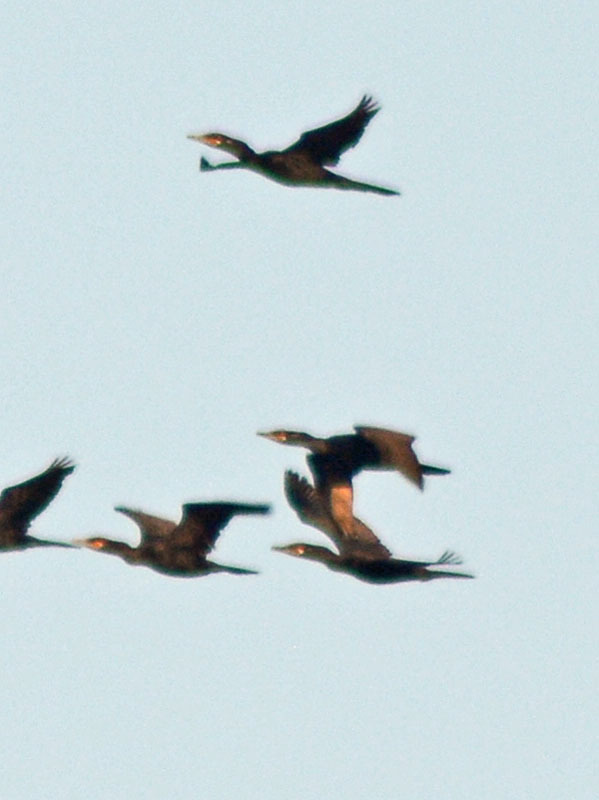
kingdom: Animalia
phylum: Chordata
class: Aves
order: Suliformes
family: Phalacrocoracidae
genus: Phalacrocorax
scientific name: Phalacrocorax brasilianus
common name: Neotropic cormorant
